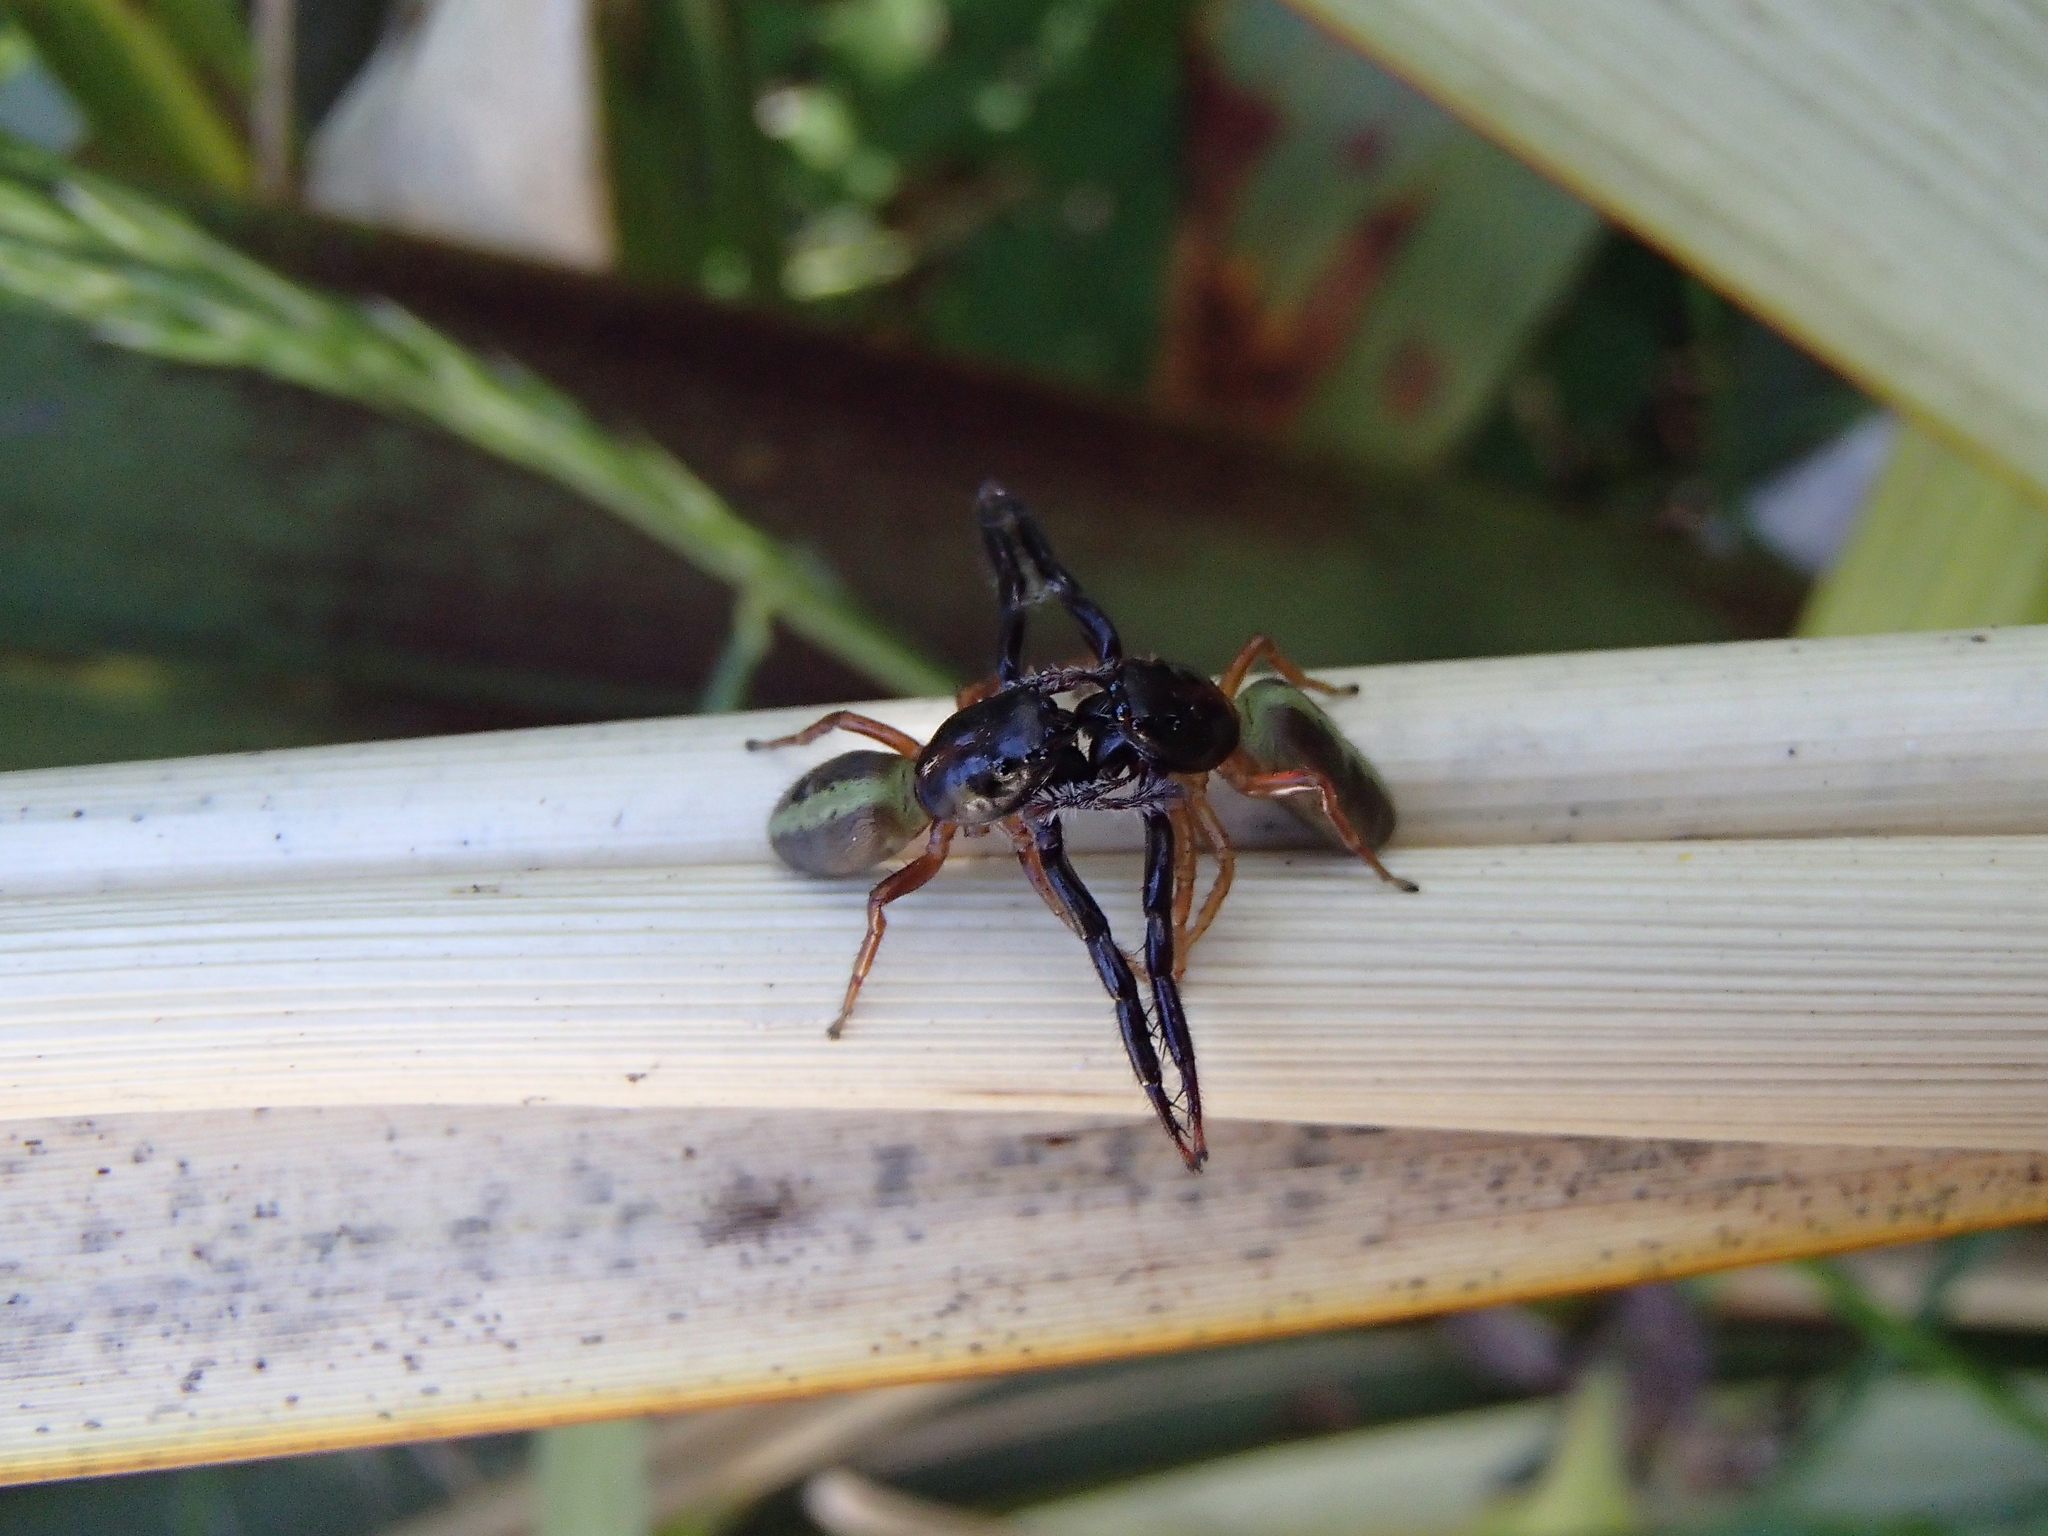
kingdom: Animalia
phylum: Arthropoda
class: Arachnida
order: Araneae
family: Salticidae
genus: Trite
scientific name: Trite planiceps
